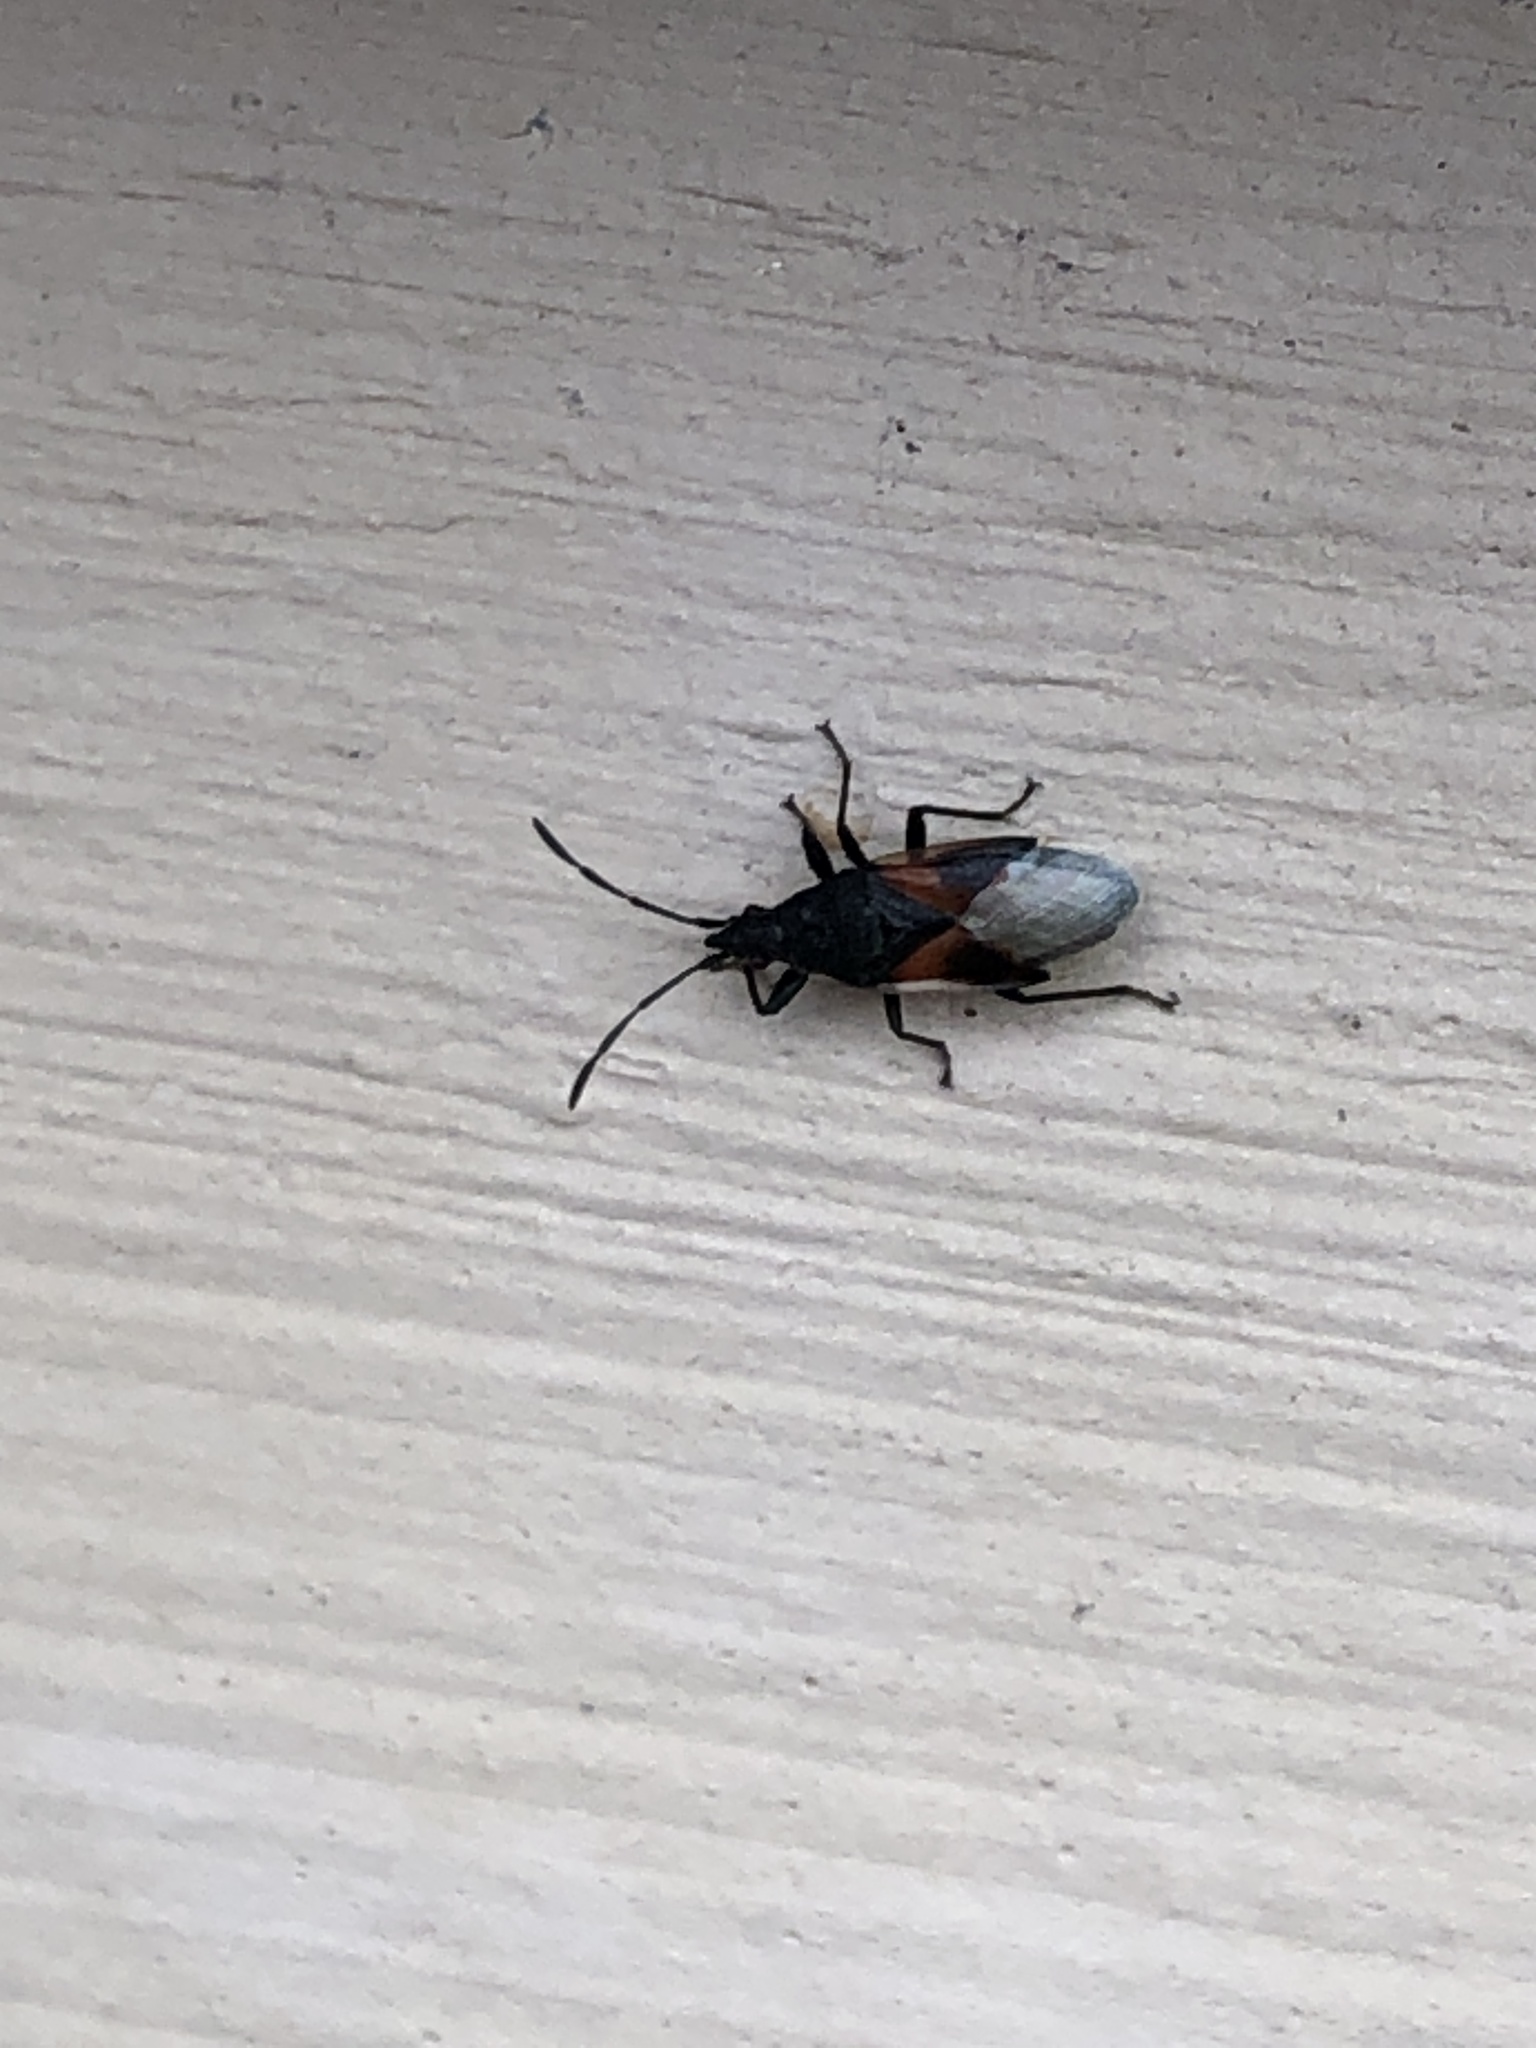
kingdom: Animalia
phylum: Arthropoda
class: Insecta
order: Hemiptera
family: Oxycarenidae
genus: Oxycarenus
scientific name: Oxycarenus lavaterae
